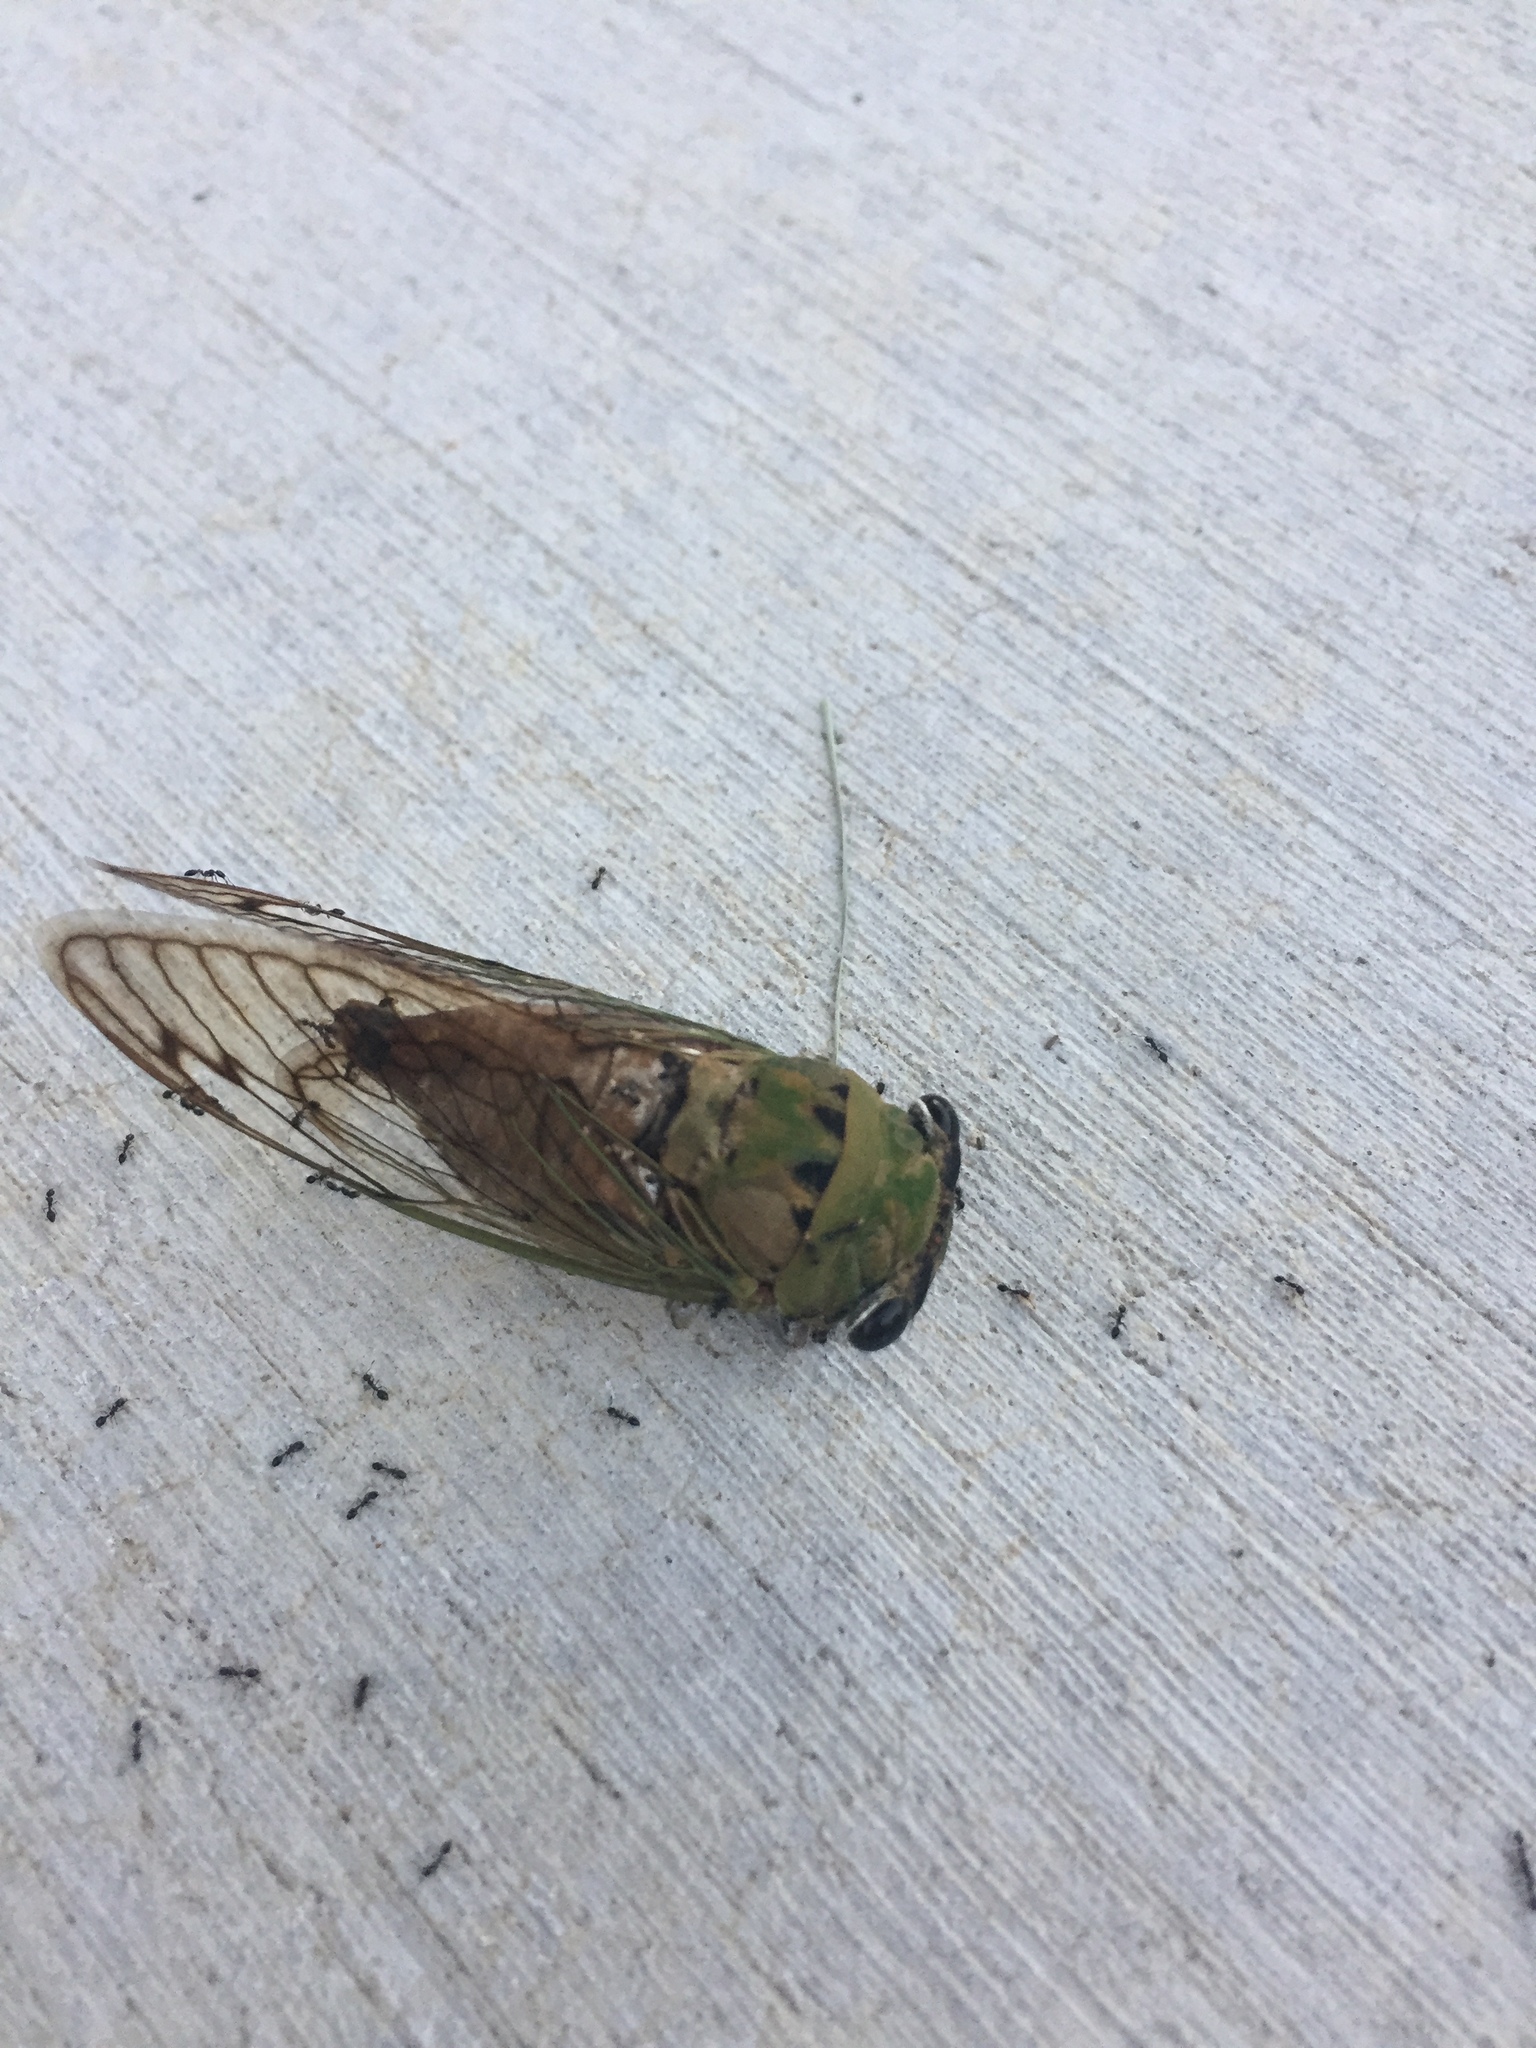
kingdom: Animalia
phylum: Arthropoda
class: Insecta
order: Hemiptera
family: Cicadidae
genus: Neotibicen
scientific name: Neotibicen superbus
